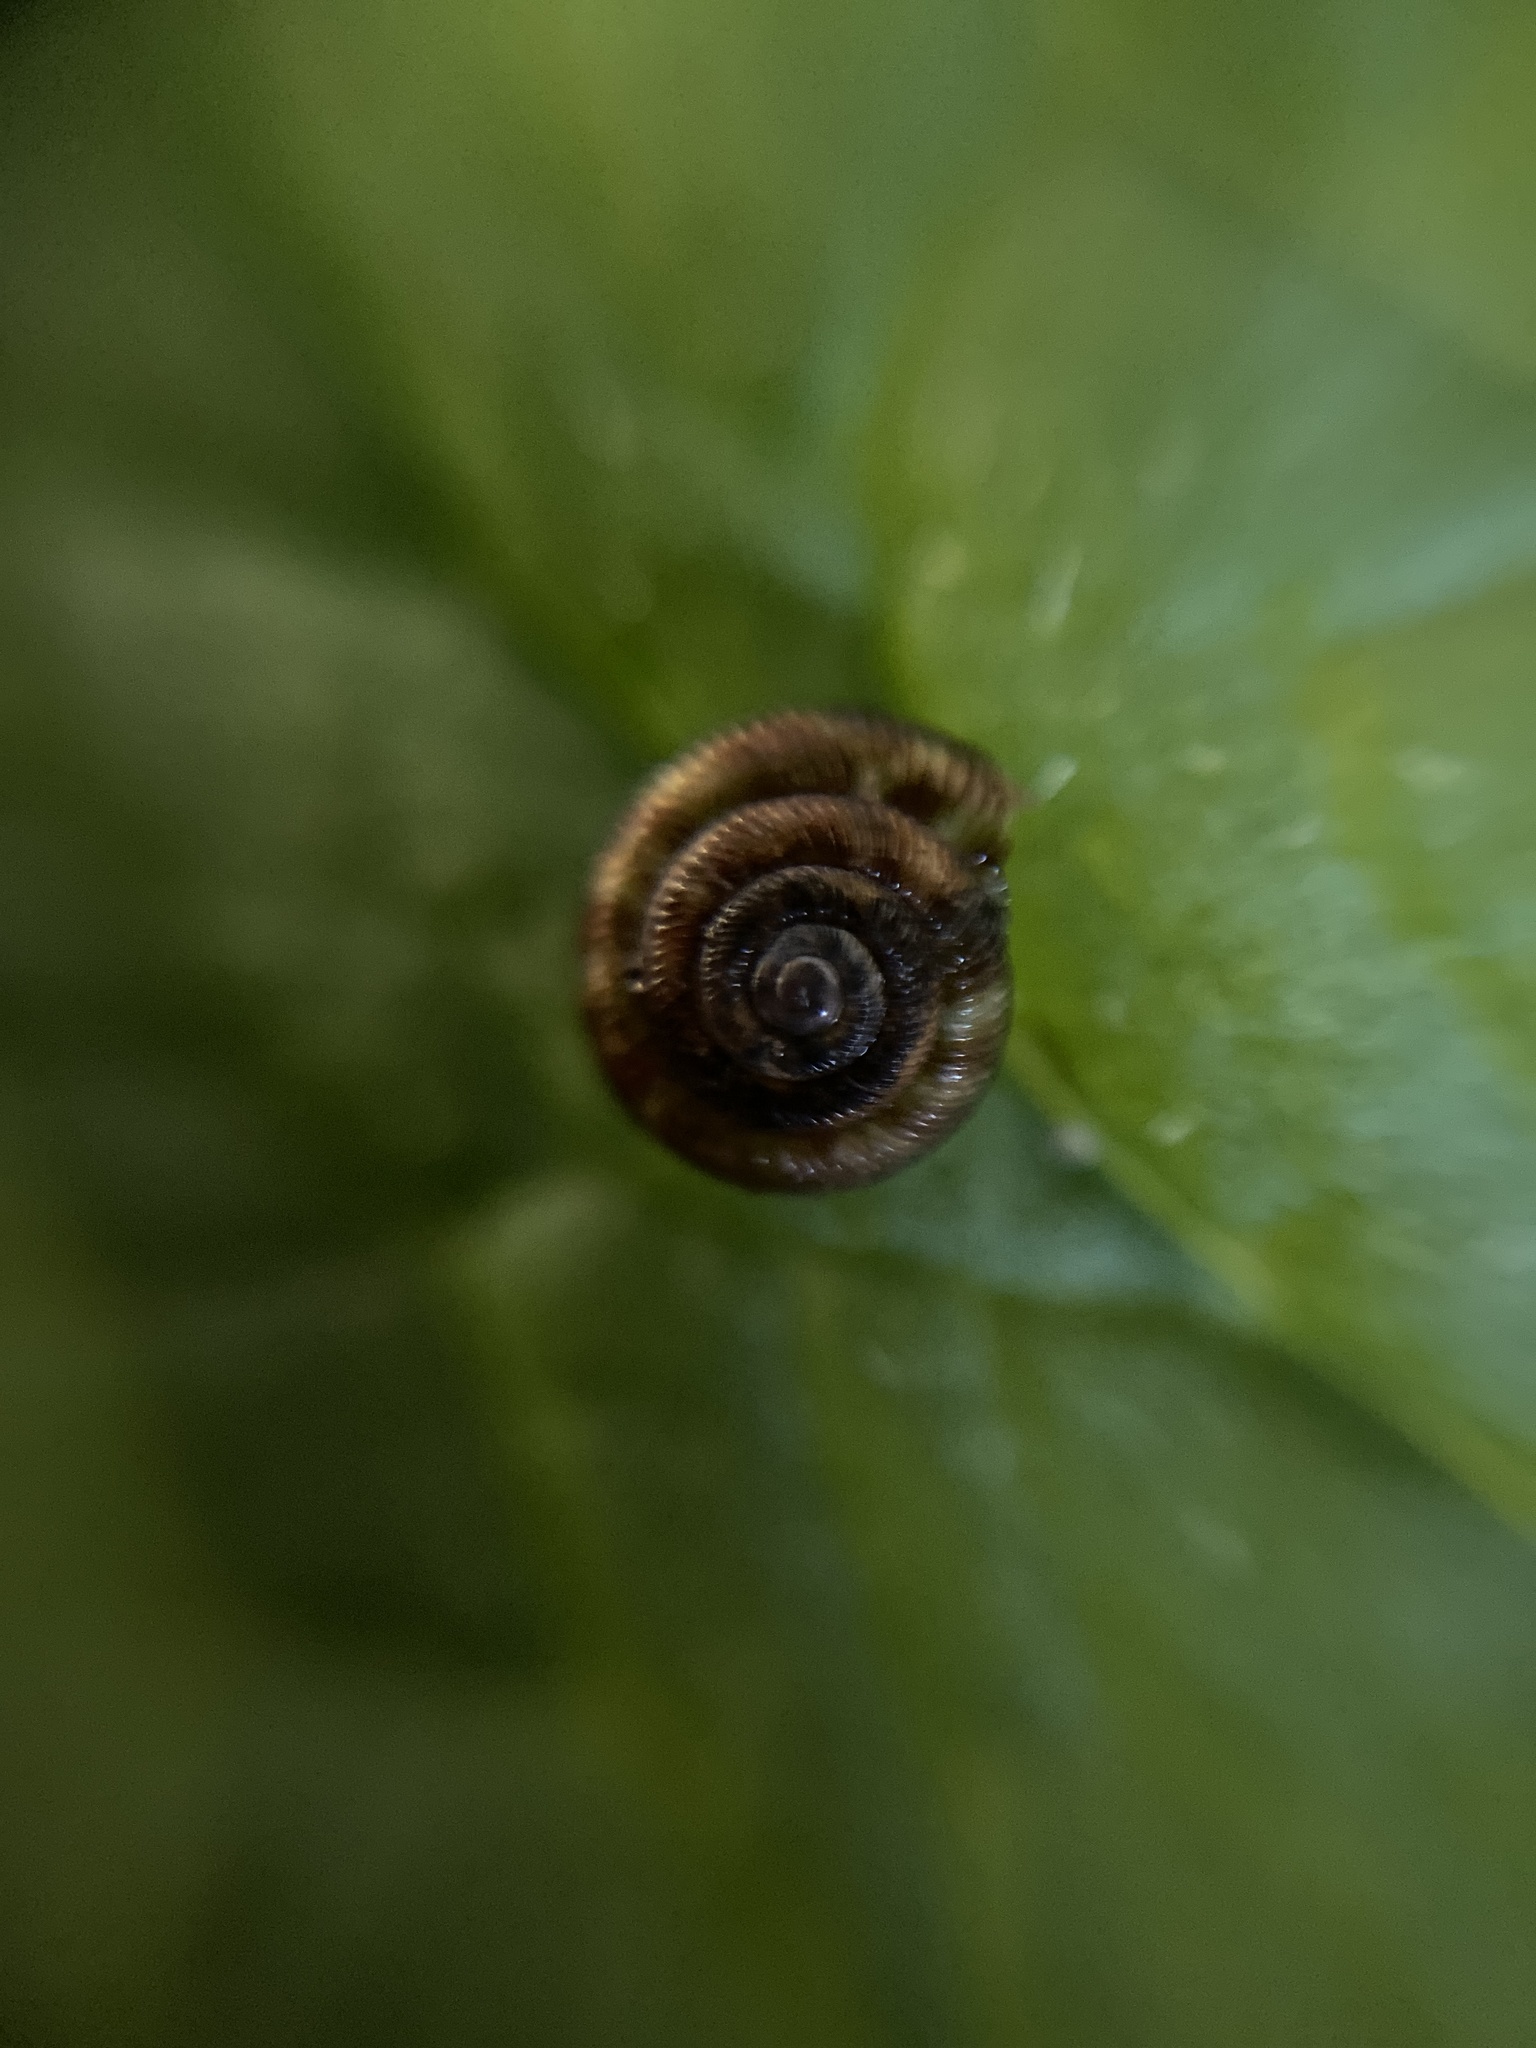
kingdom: Animalia
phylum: Mollusca
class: Gastropoda
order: Stylommatophora
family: Discidae
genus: Discus
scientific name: Discus rotundatus
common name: Rounded snail
